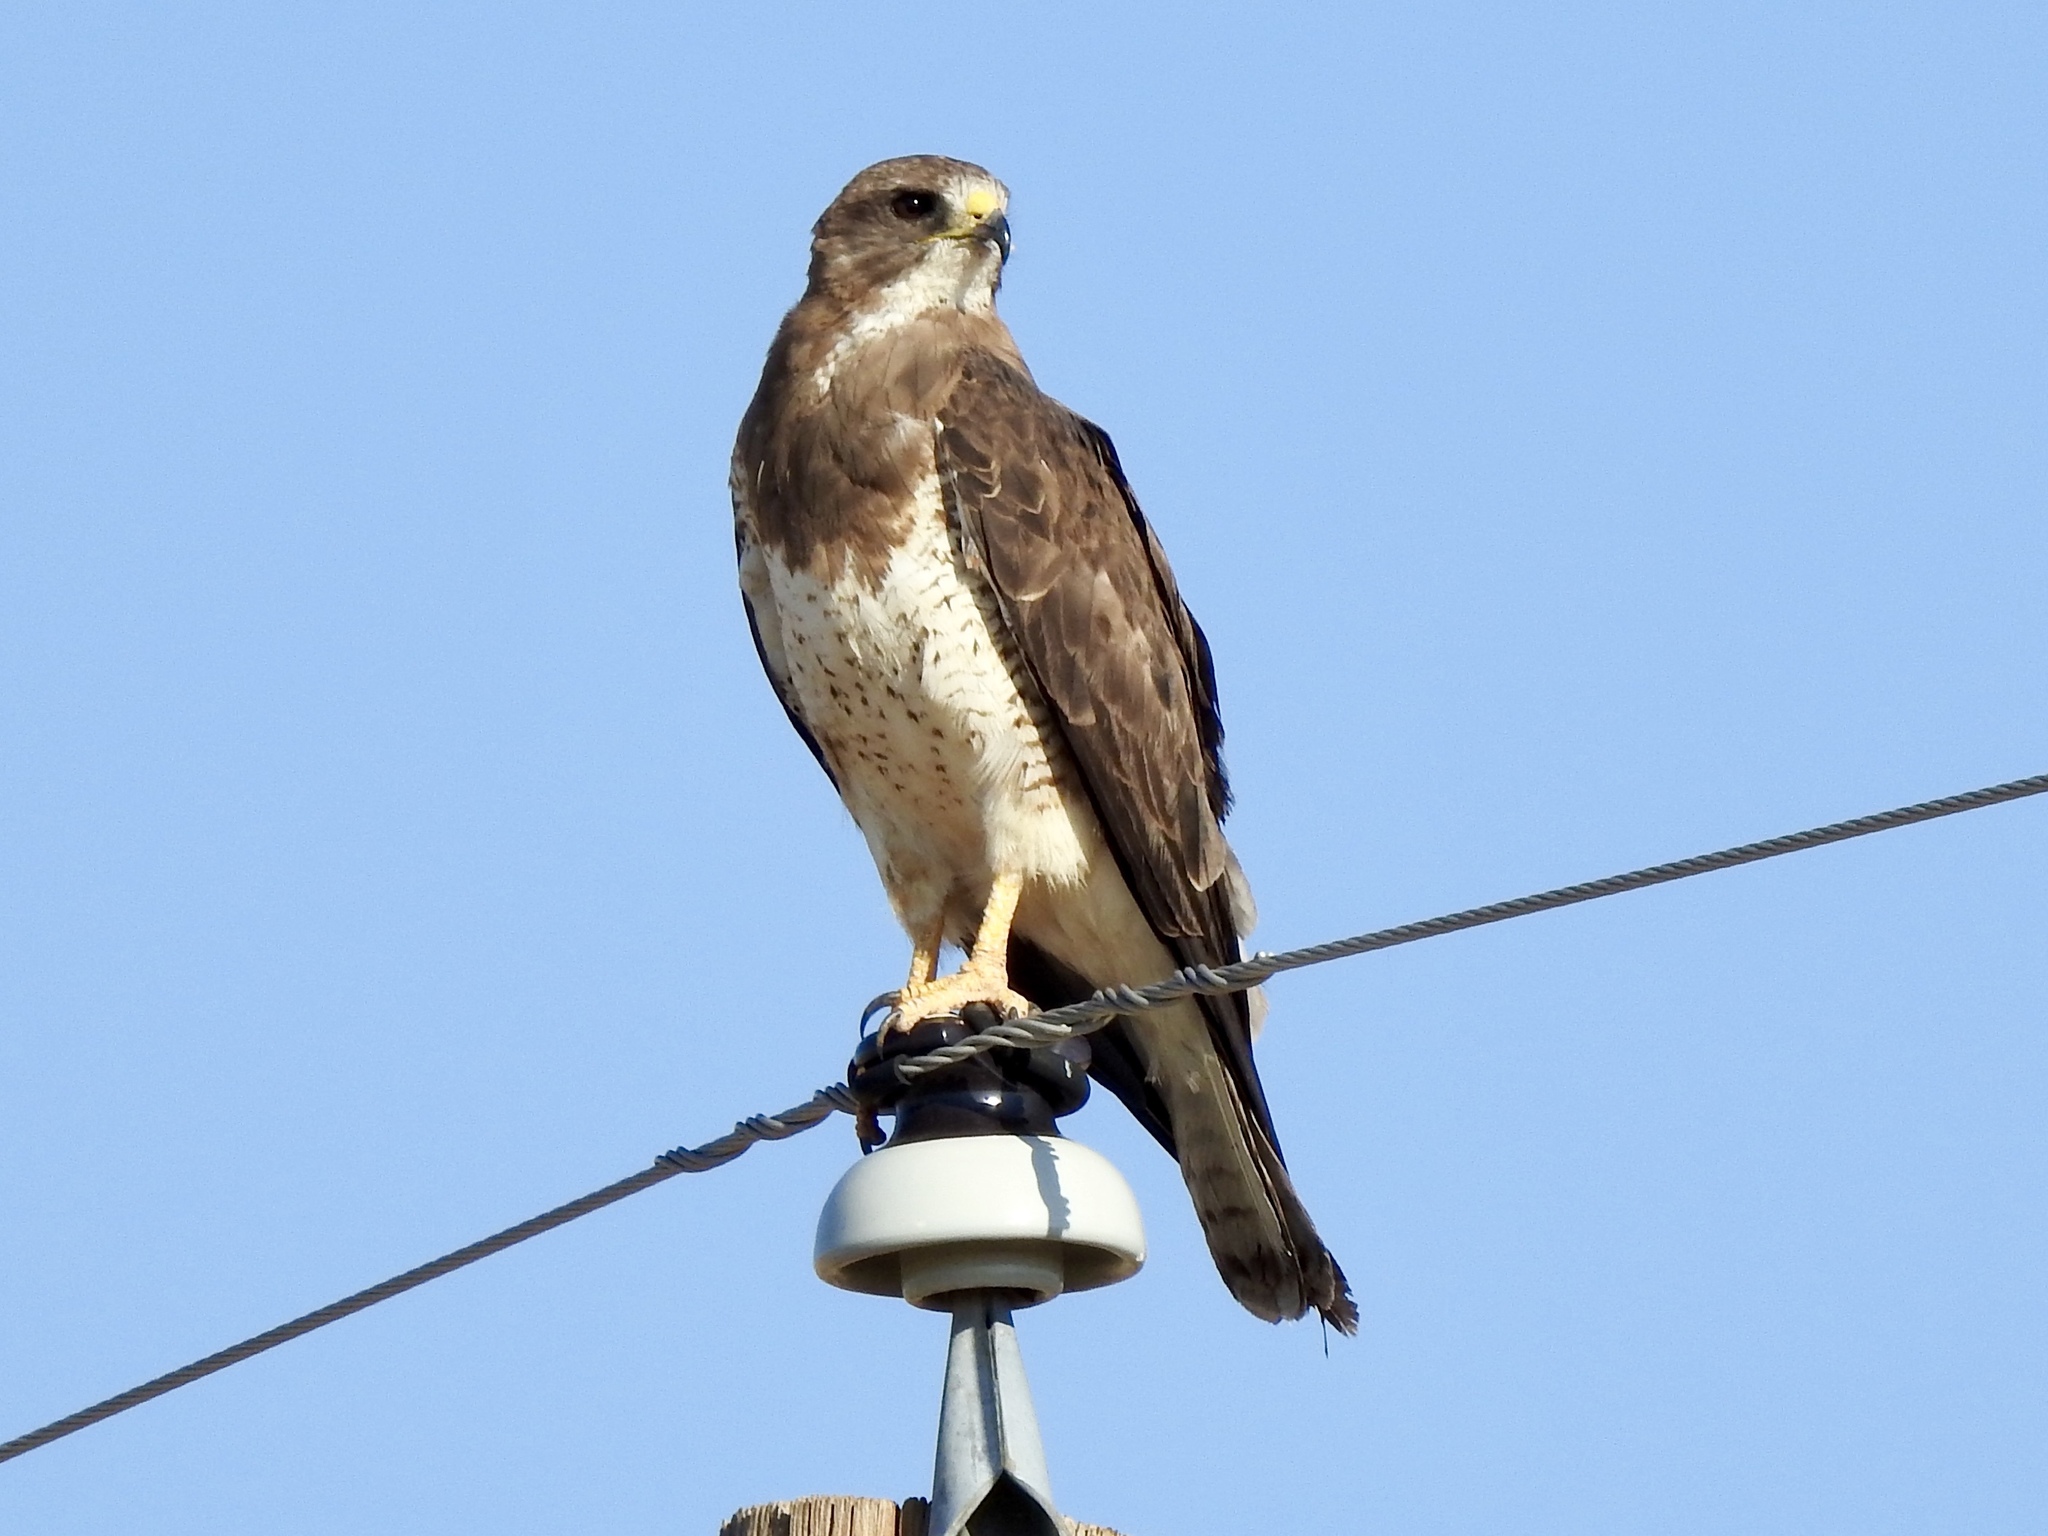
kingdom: Animalia
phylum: Chordata
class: Aves
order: Accipitriformes
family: Accipitridae
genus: Buteo
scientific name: Buteo swainsoni
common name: Swainson's hawk
